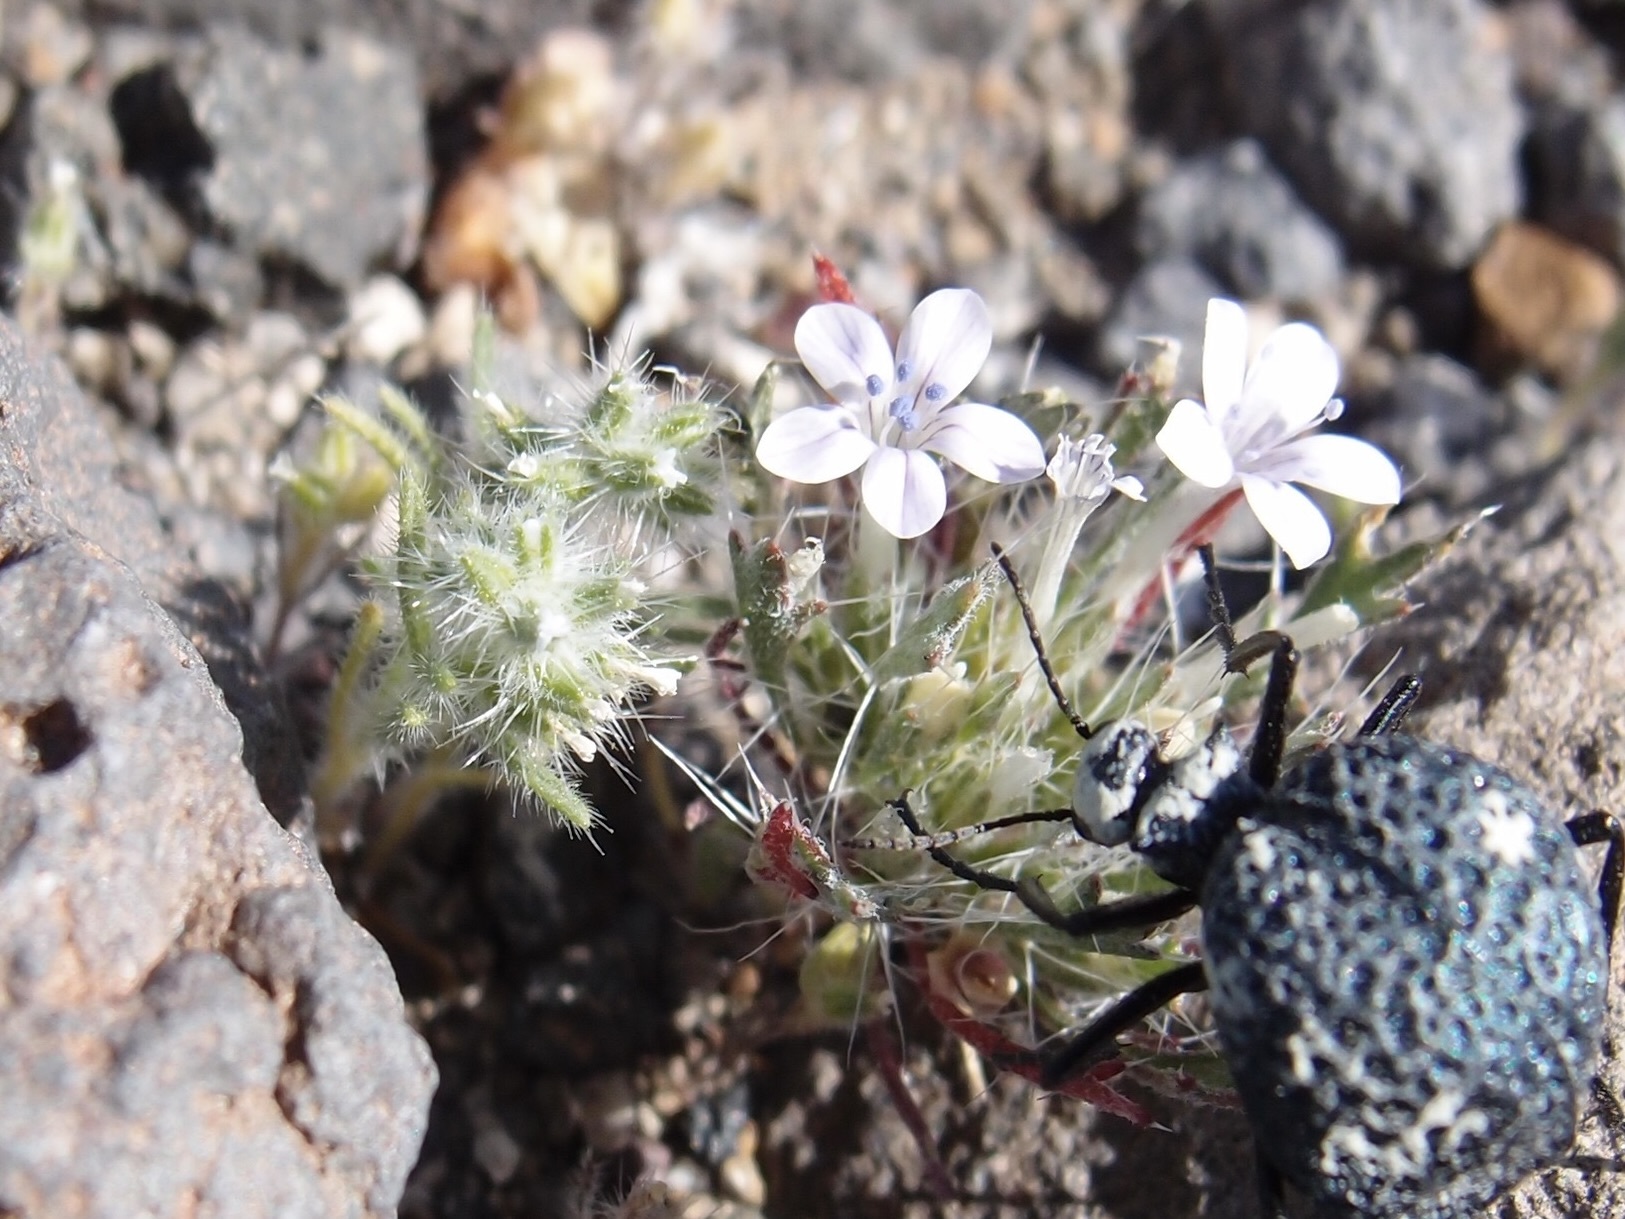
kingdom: Plantae
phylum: Tracheophyta
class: Magnoliopsida
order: Ericales
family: Polemoniaceae
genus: Langloisia
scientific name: Langloisia setosissima
